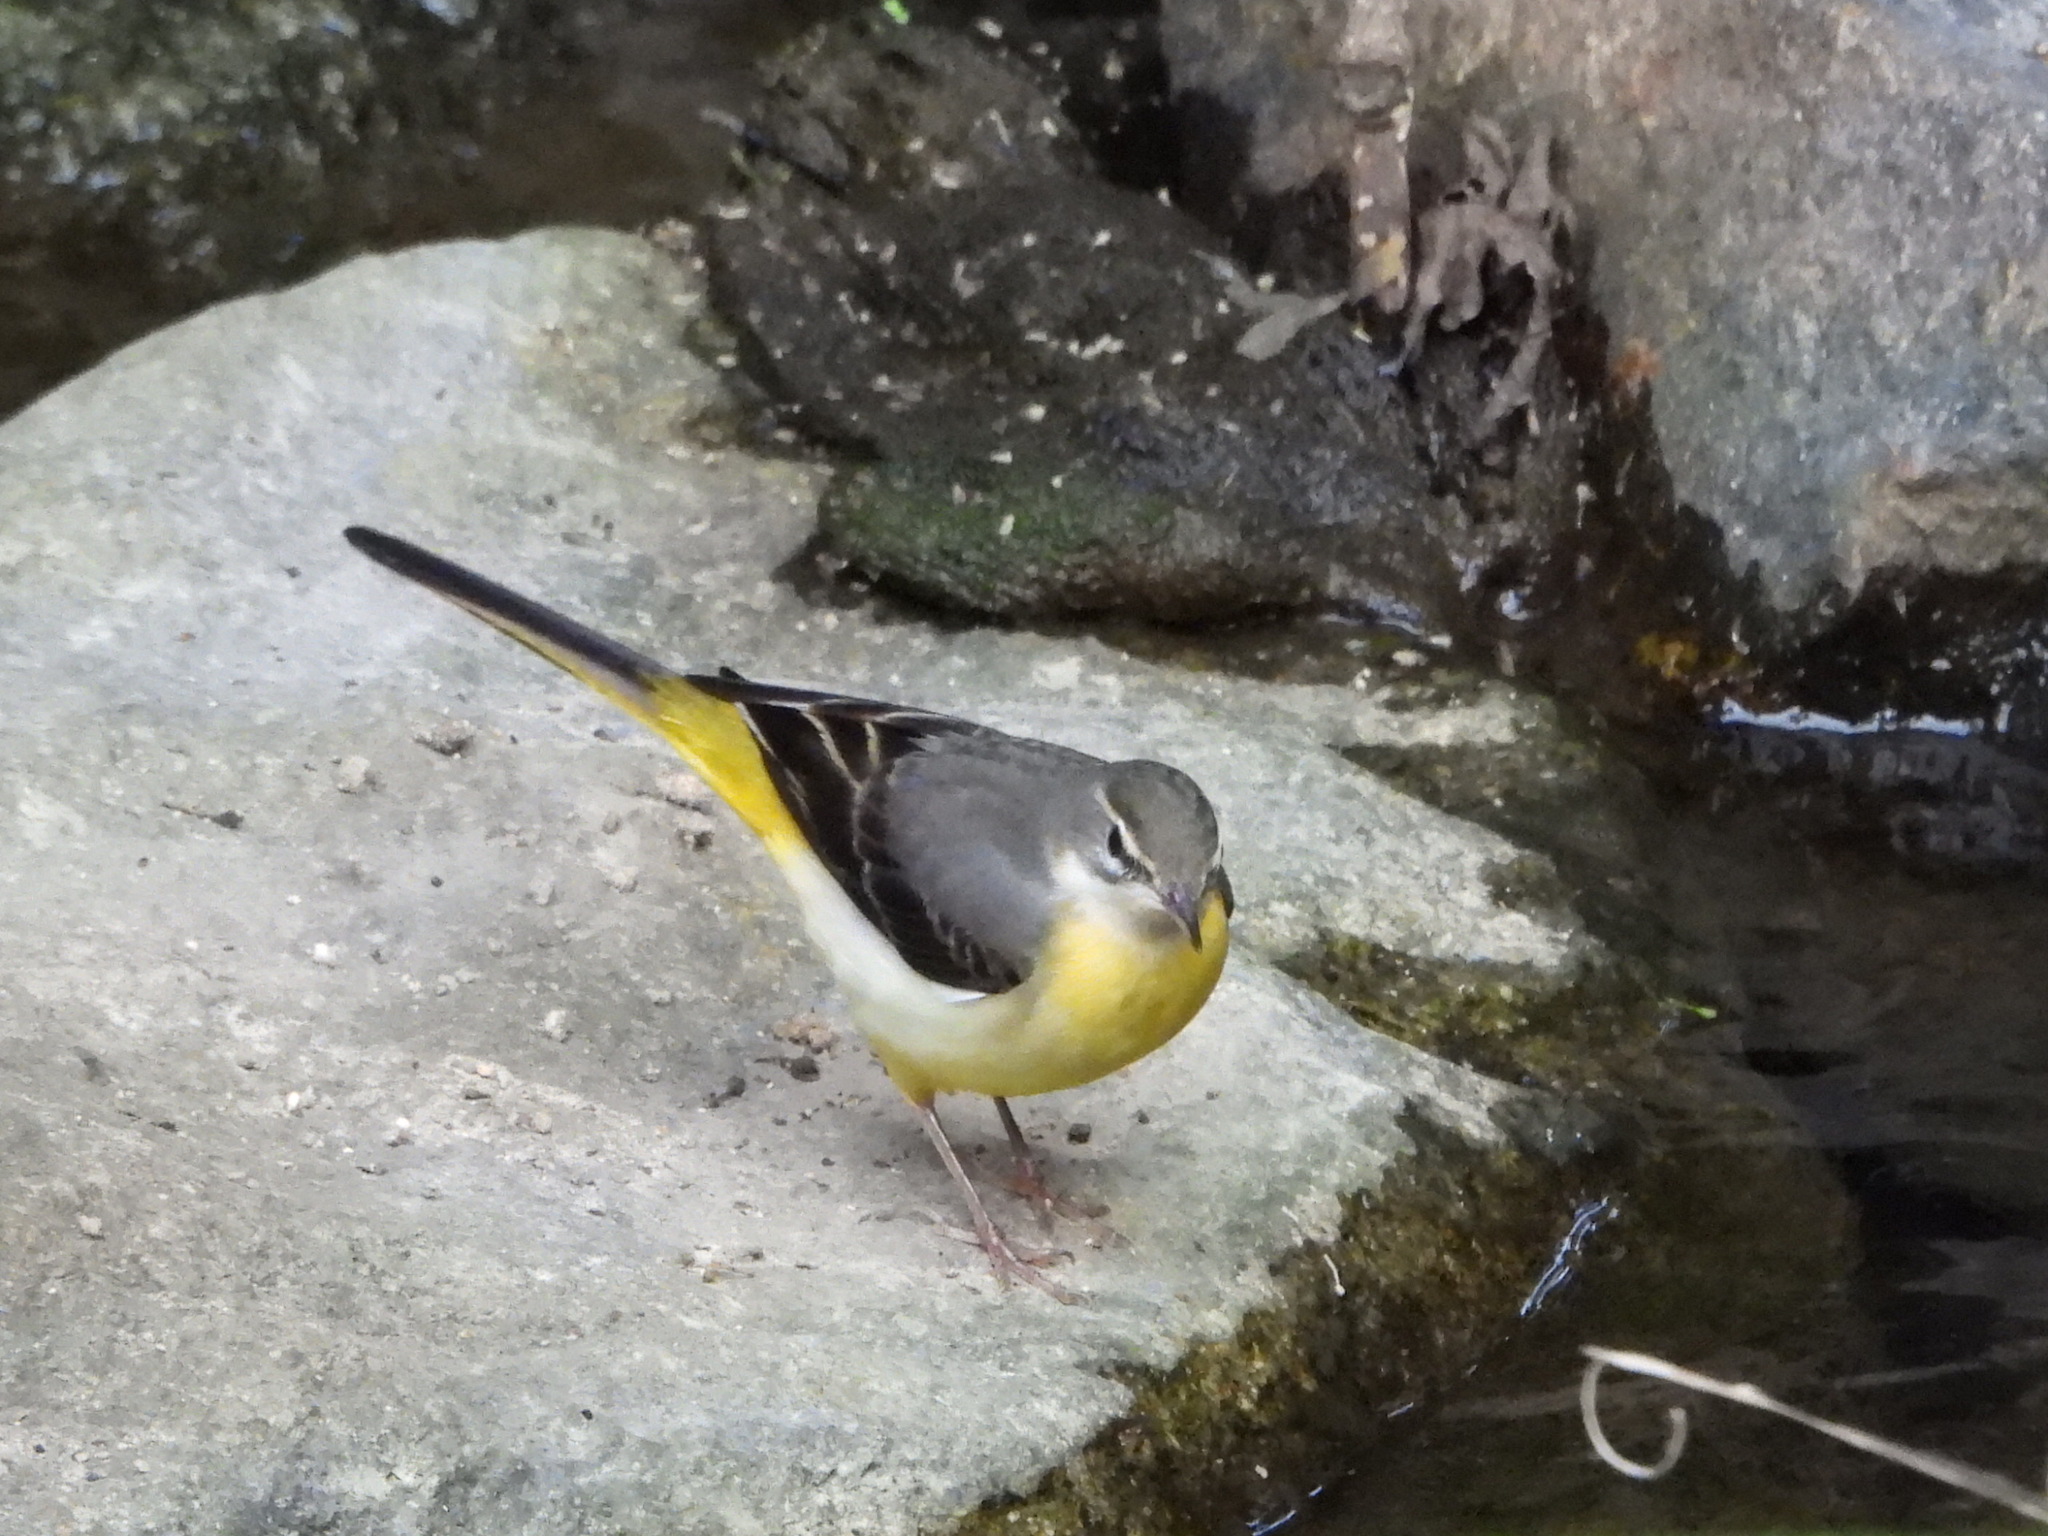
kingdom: Animalia
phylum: Chordata
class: Aves
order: Passeriformes
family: Motacillidae
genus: Motacilla
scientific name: Motacilla cinerea
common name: Grey wagtail
